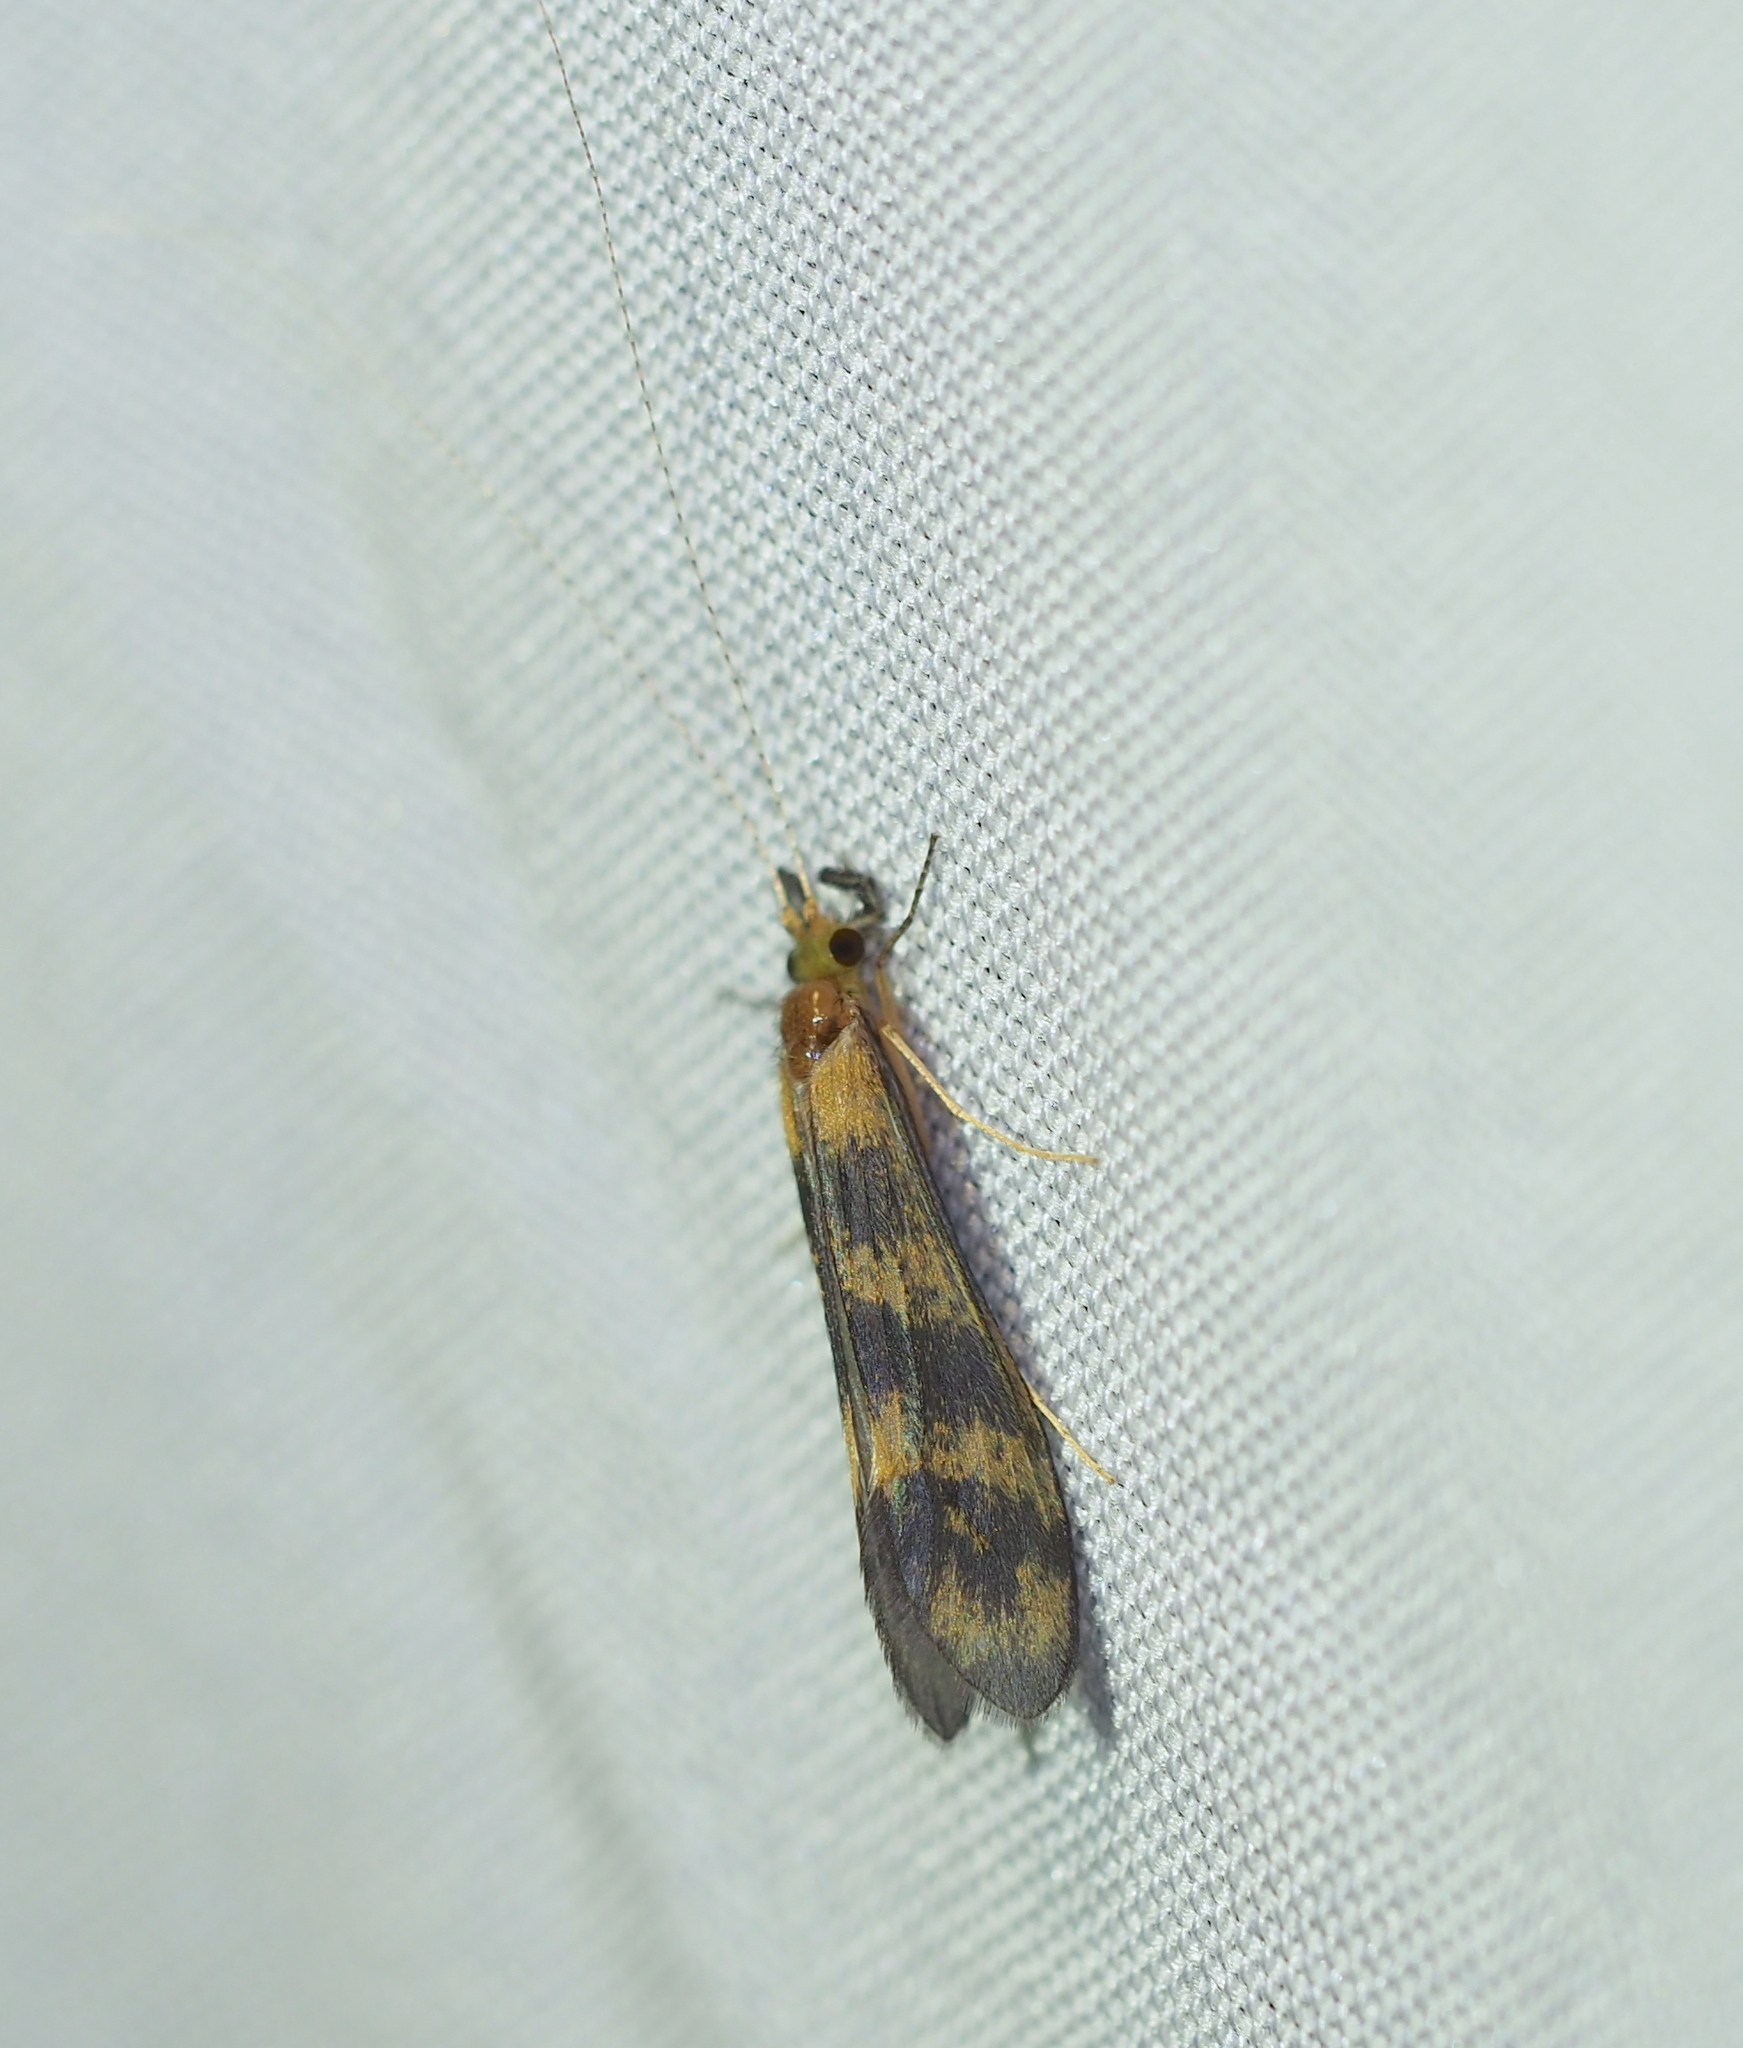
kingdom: Animalia
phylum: Arthropoda
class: Insecta
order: Trichoptera
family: Leptoceridae
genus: Mystacides
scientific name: Mystacides longicornis
